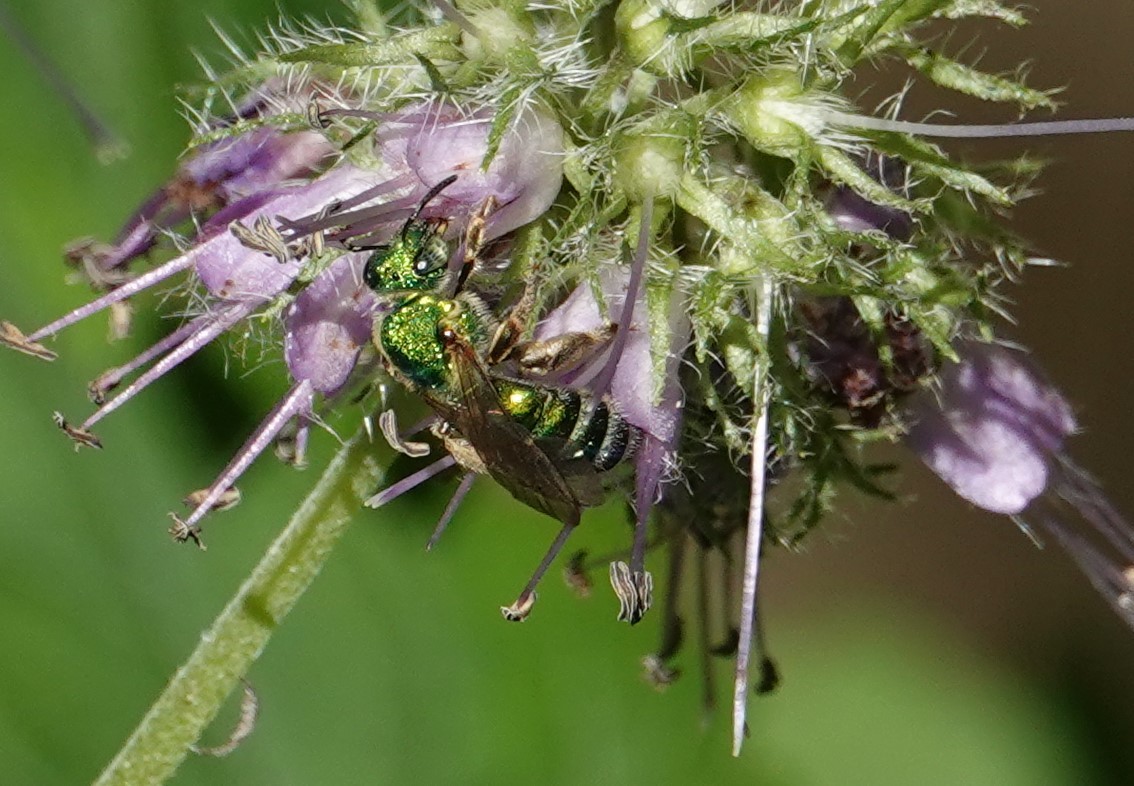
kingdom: Animalia
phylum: Arthropoda
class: Insecta
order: Hymenoptera
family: Halictidae
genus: Agapostemon
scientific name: Agapostemon sericeus
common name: Silky striped sweat bee
